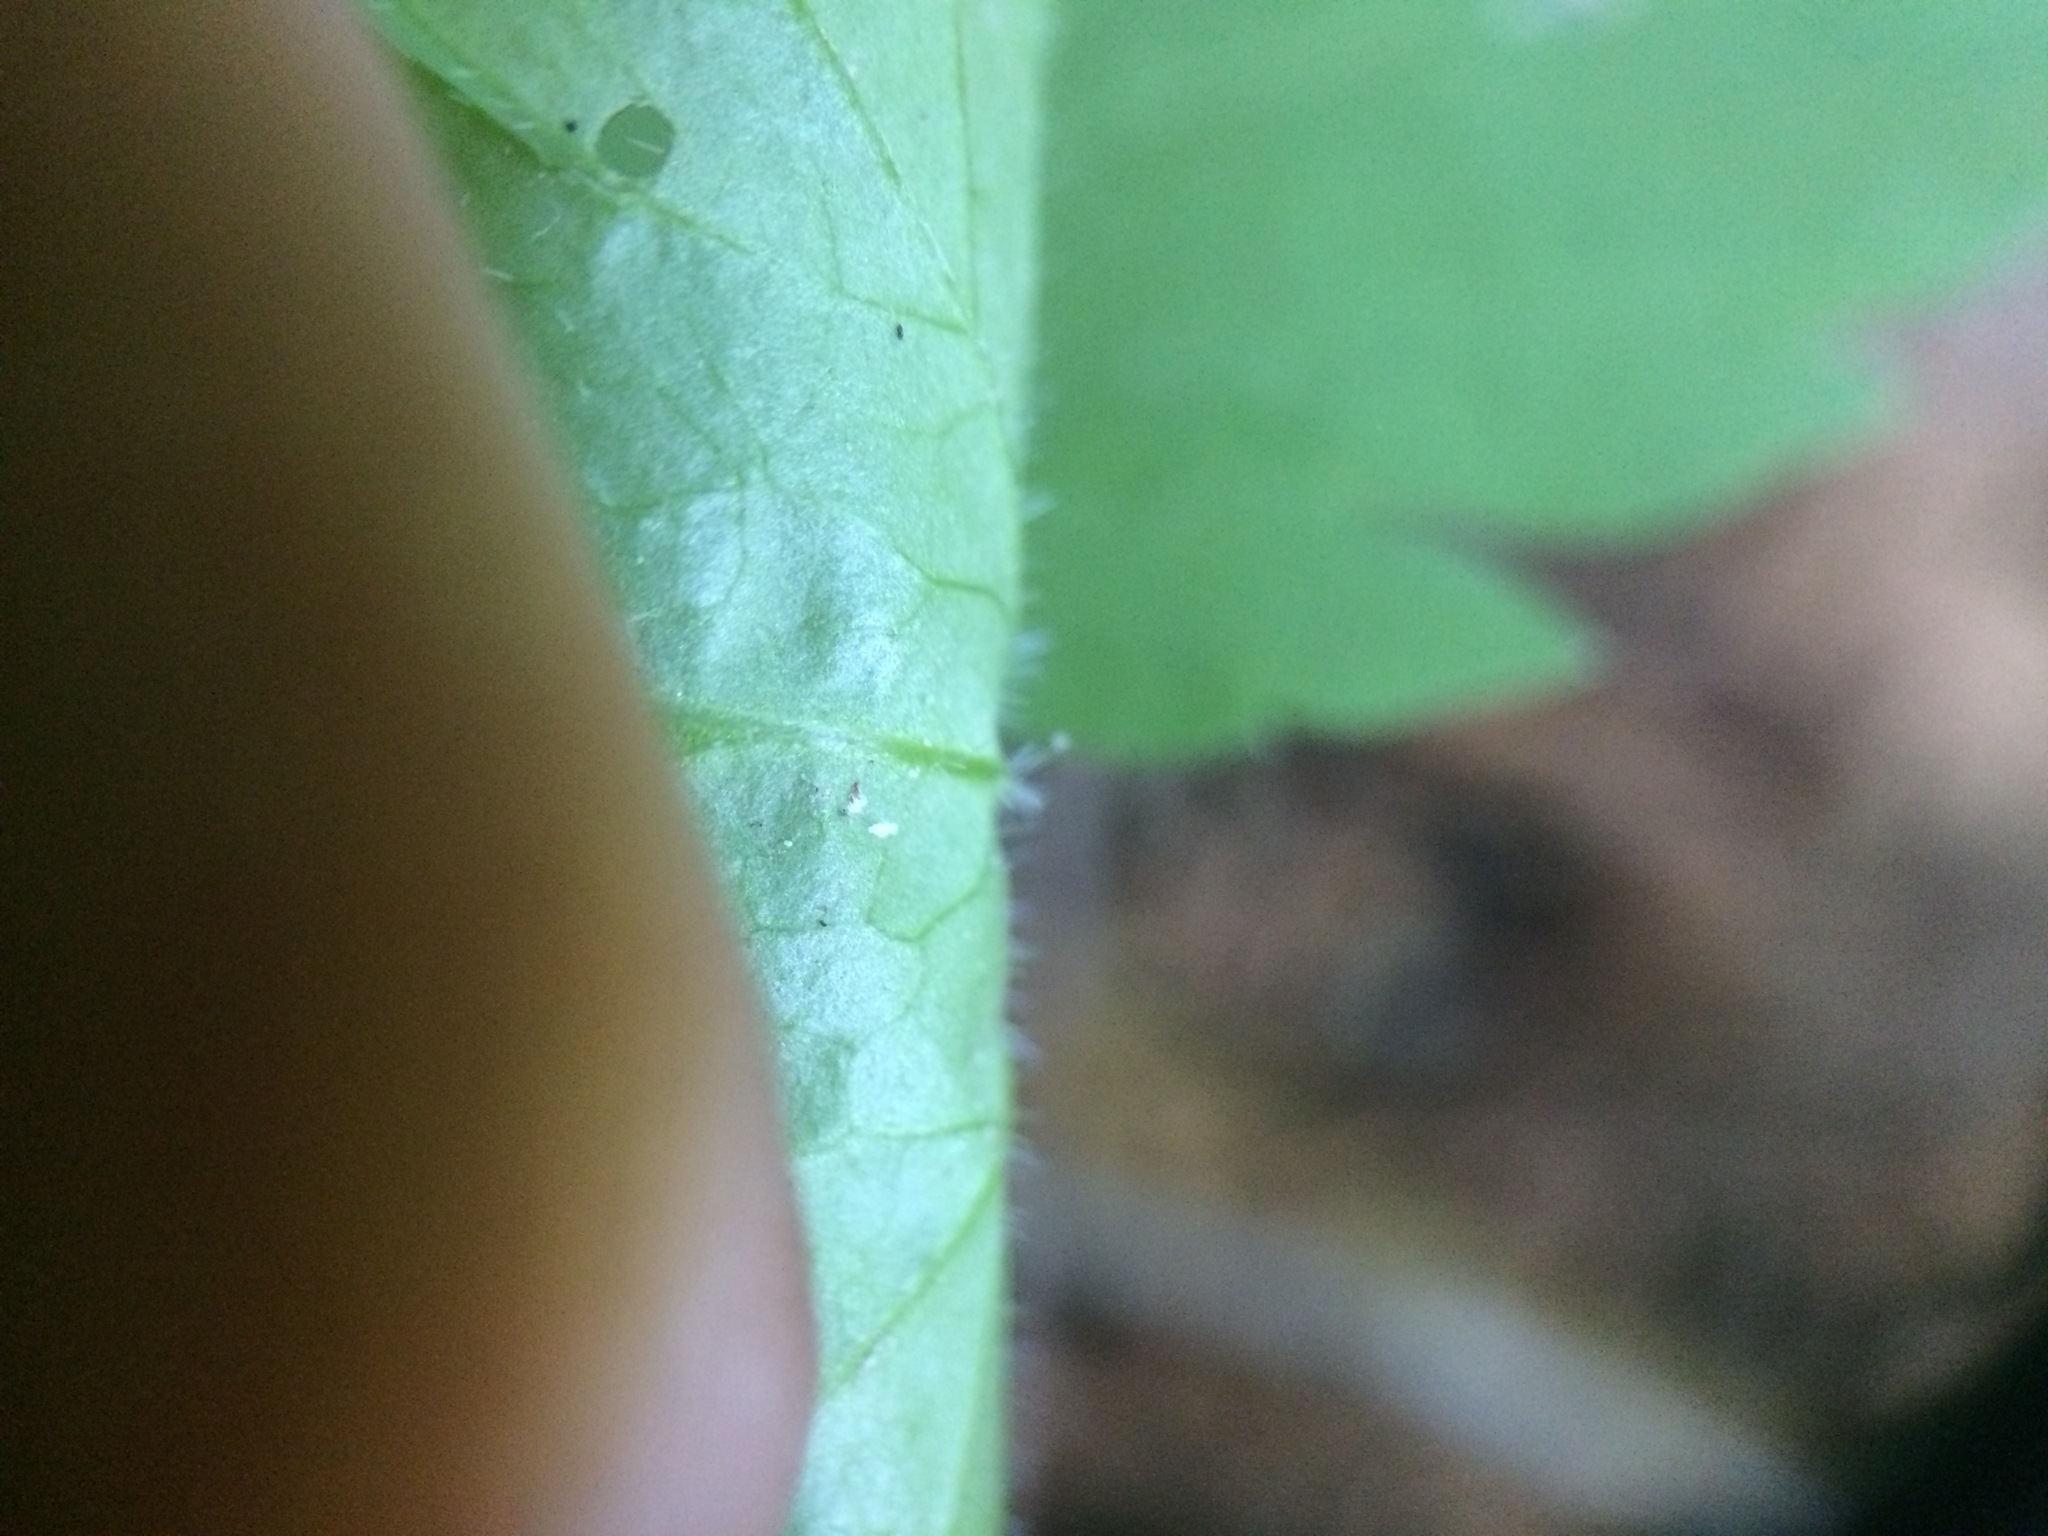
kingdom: Plantae
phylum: Tracheophyta
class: Magnoliopsida
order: Apiales
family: Apiaceae
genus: Osmorhiza
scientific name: Osmorhiza berteroi
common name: Mountain sweet cicely
